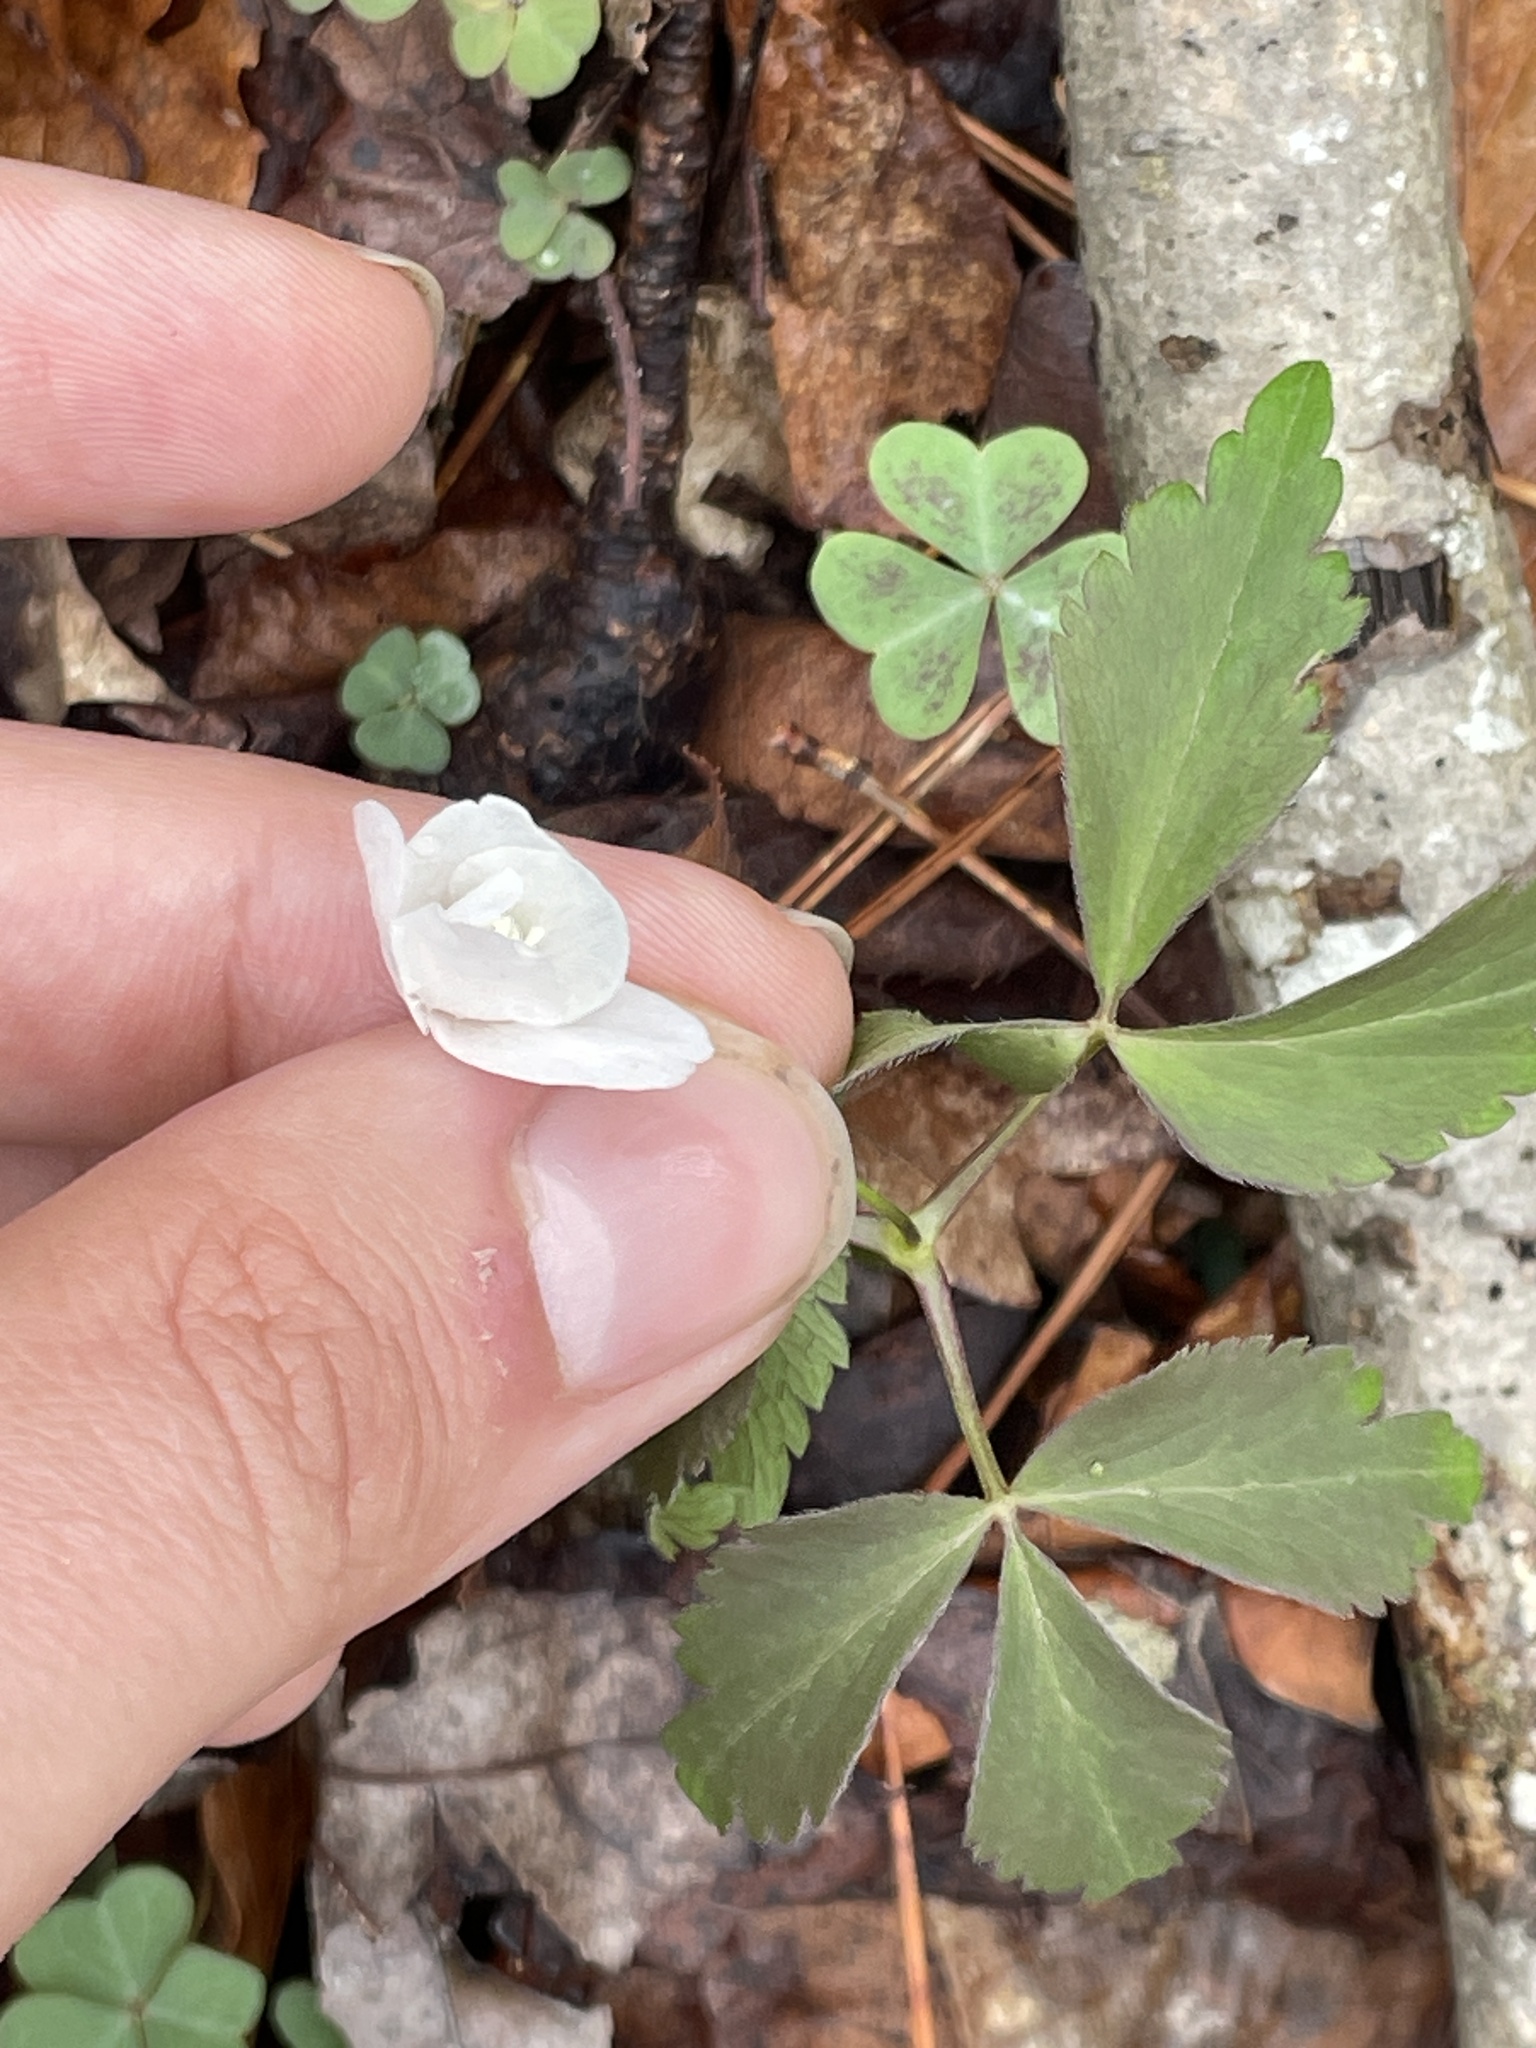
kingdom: Plantae
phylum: Tracheophyta
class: Magnoliopsida
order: Ranunculales
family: Ranunculaceae
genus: Anemone
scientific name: Anemone lancifolia
